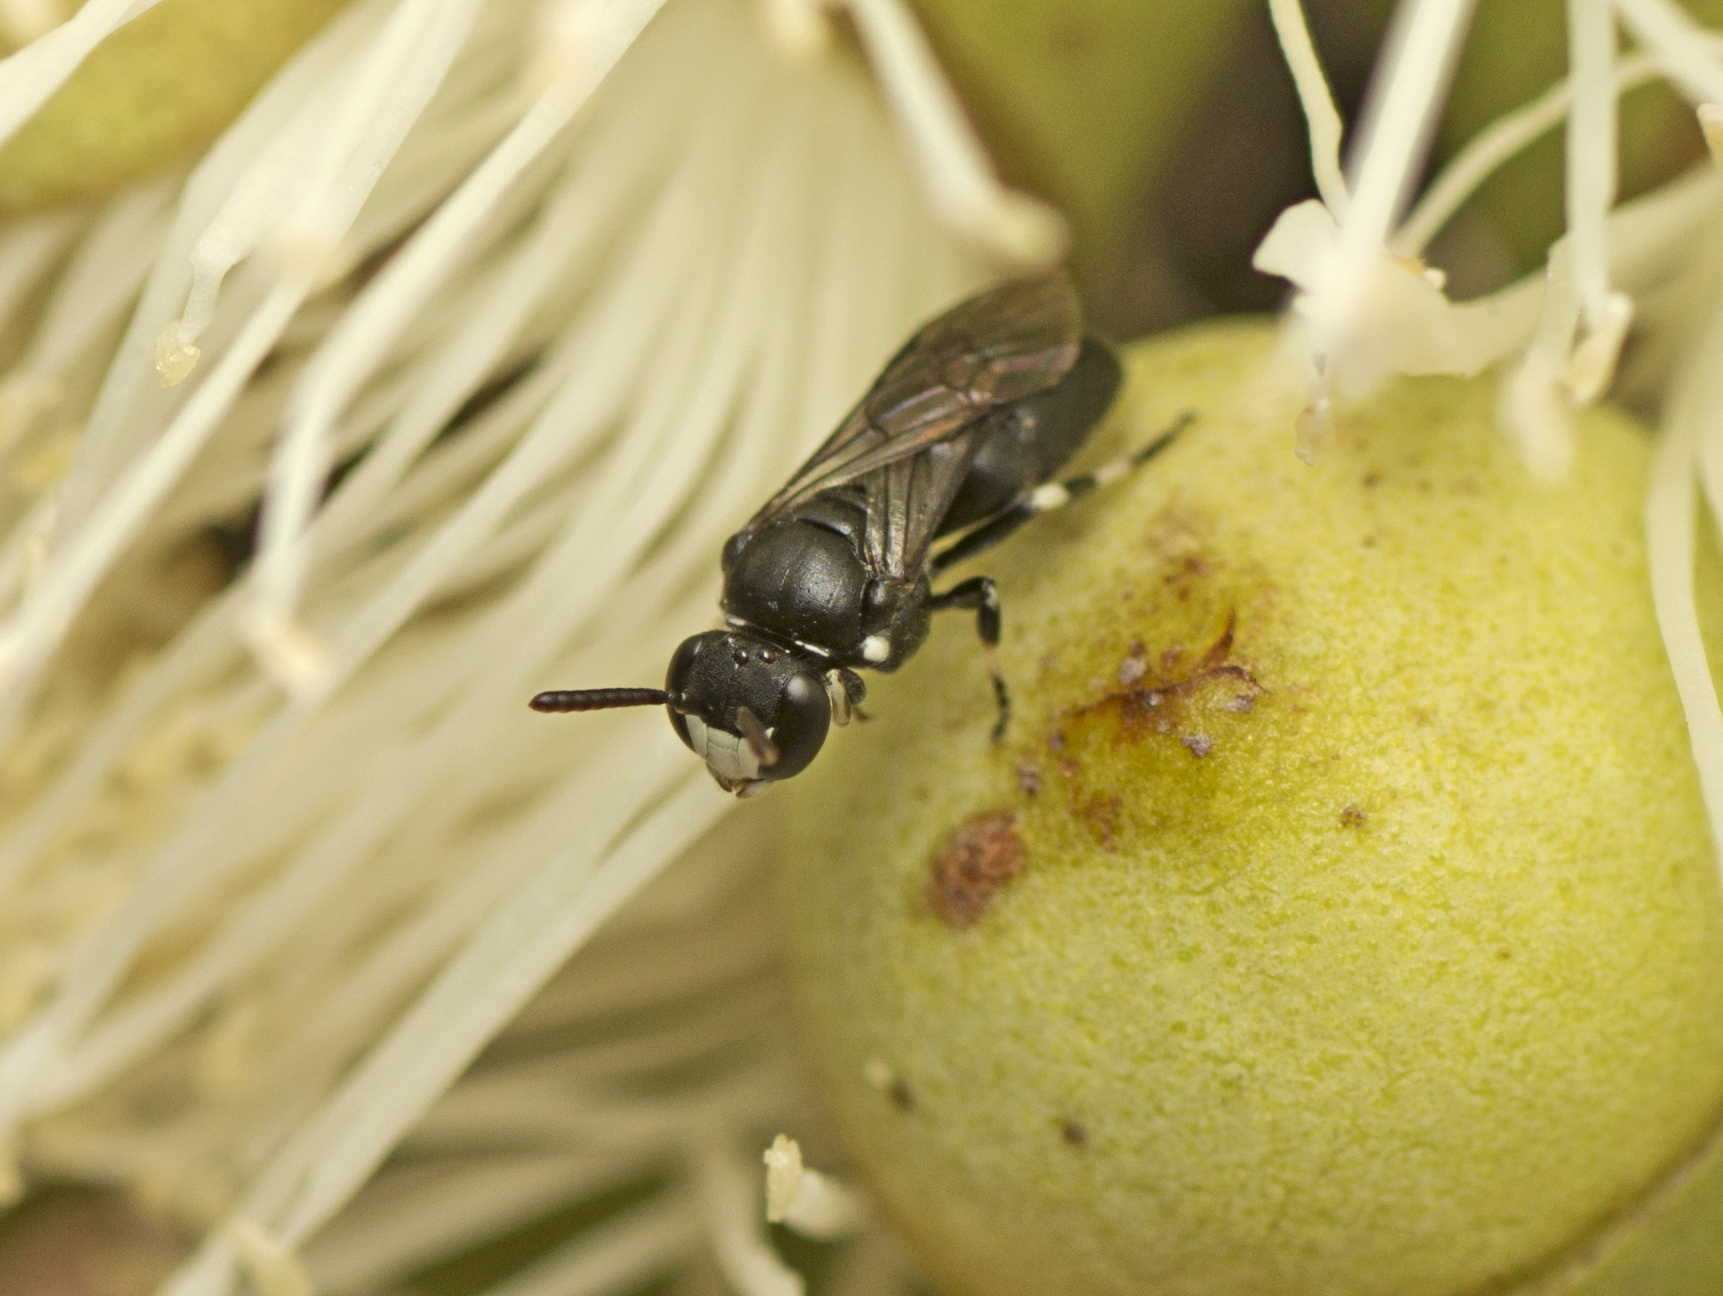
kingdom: Animalia
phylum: Arthropoda
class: Insecta
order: Hymenoptera
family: Colletidae
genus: Hylaeus
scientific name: Hylaeus albonitens
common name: Colletid bee
